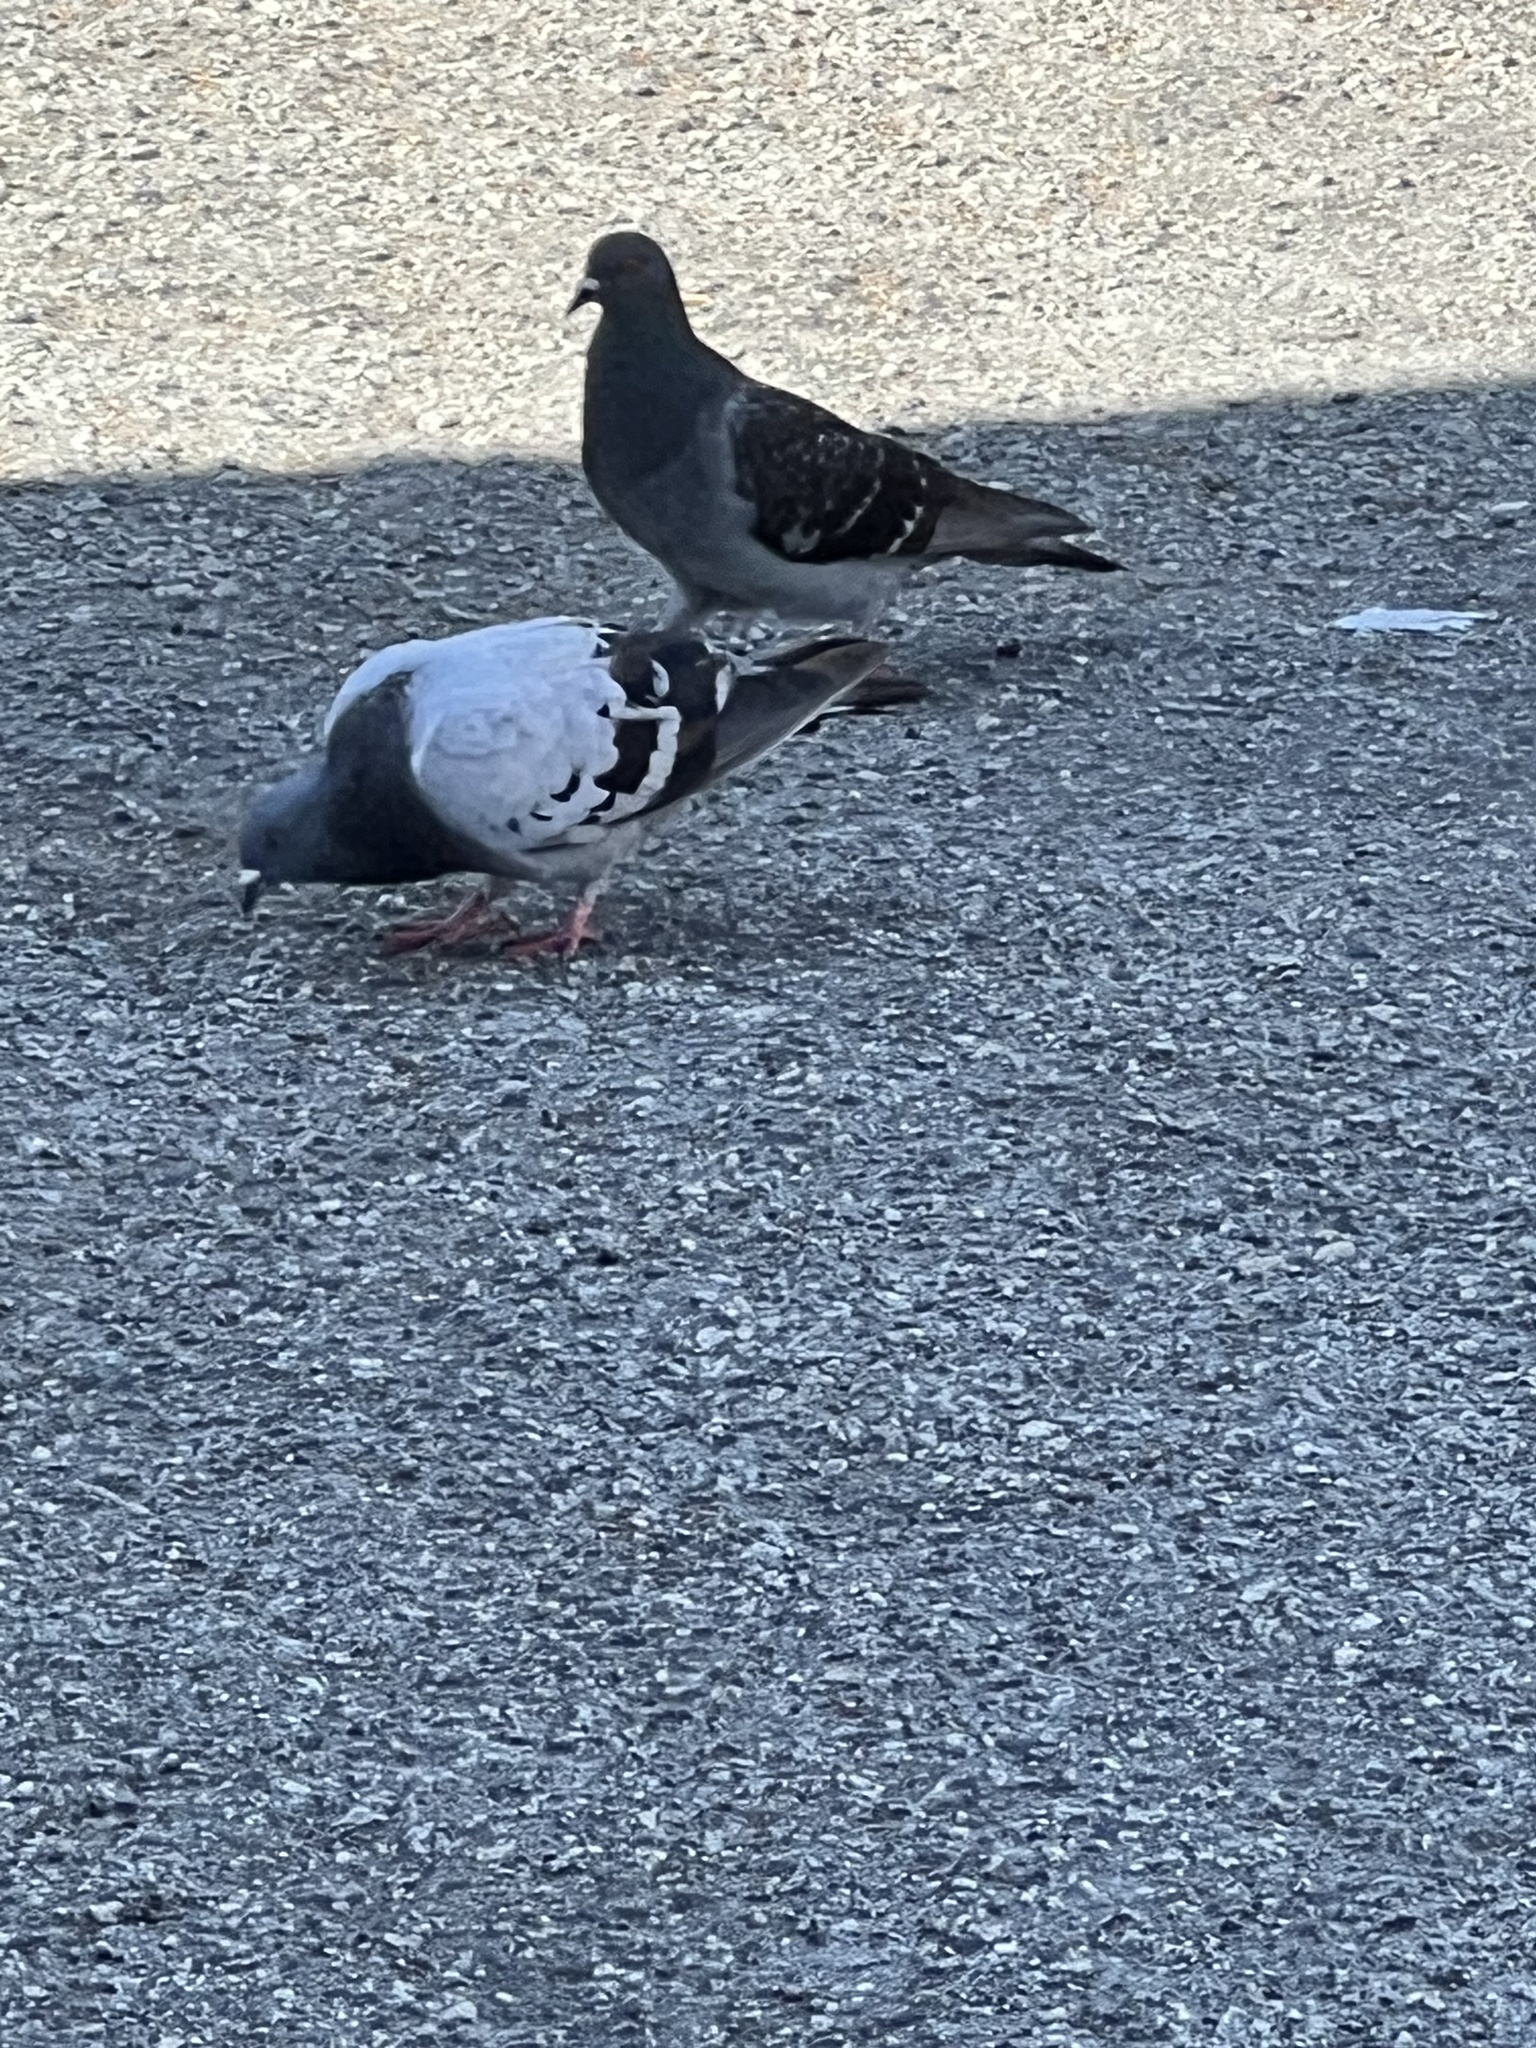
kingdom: Animalia
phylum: Chordata
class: Aves
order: Columbiformes
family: Columbidae
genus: Columba
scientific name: Columba livia
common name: Rock pigeon
